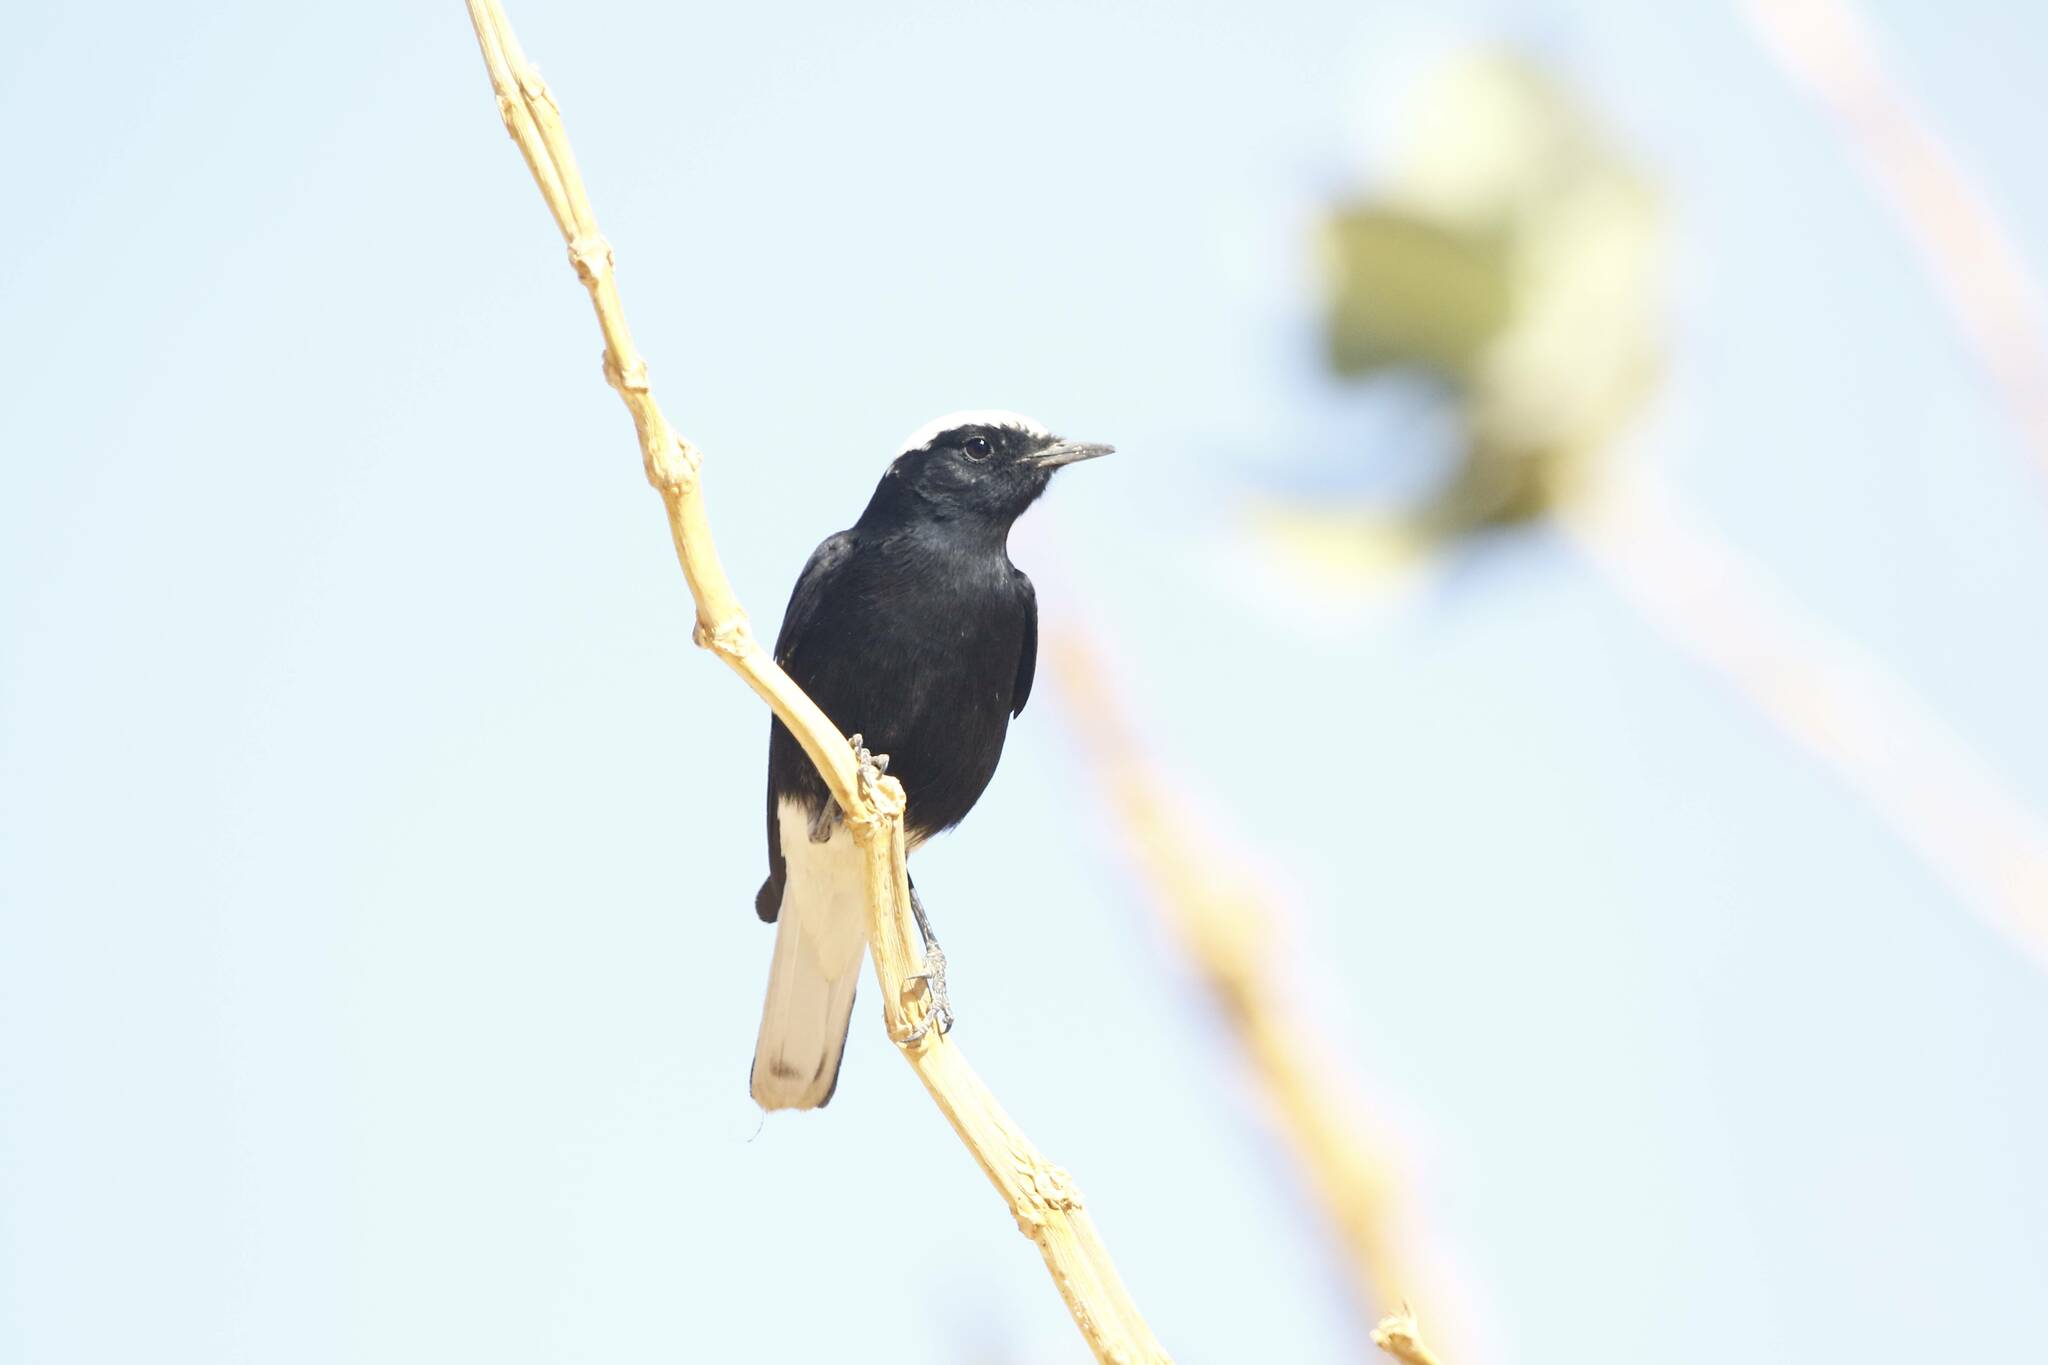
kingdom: Animalia
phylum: Chordata
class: Aves
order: Passeriformes
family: Muscicapidae
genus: Oenanthe
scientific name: Oenanthe leucopyga
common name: White-crowned wheatear
